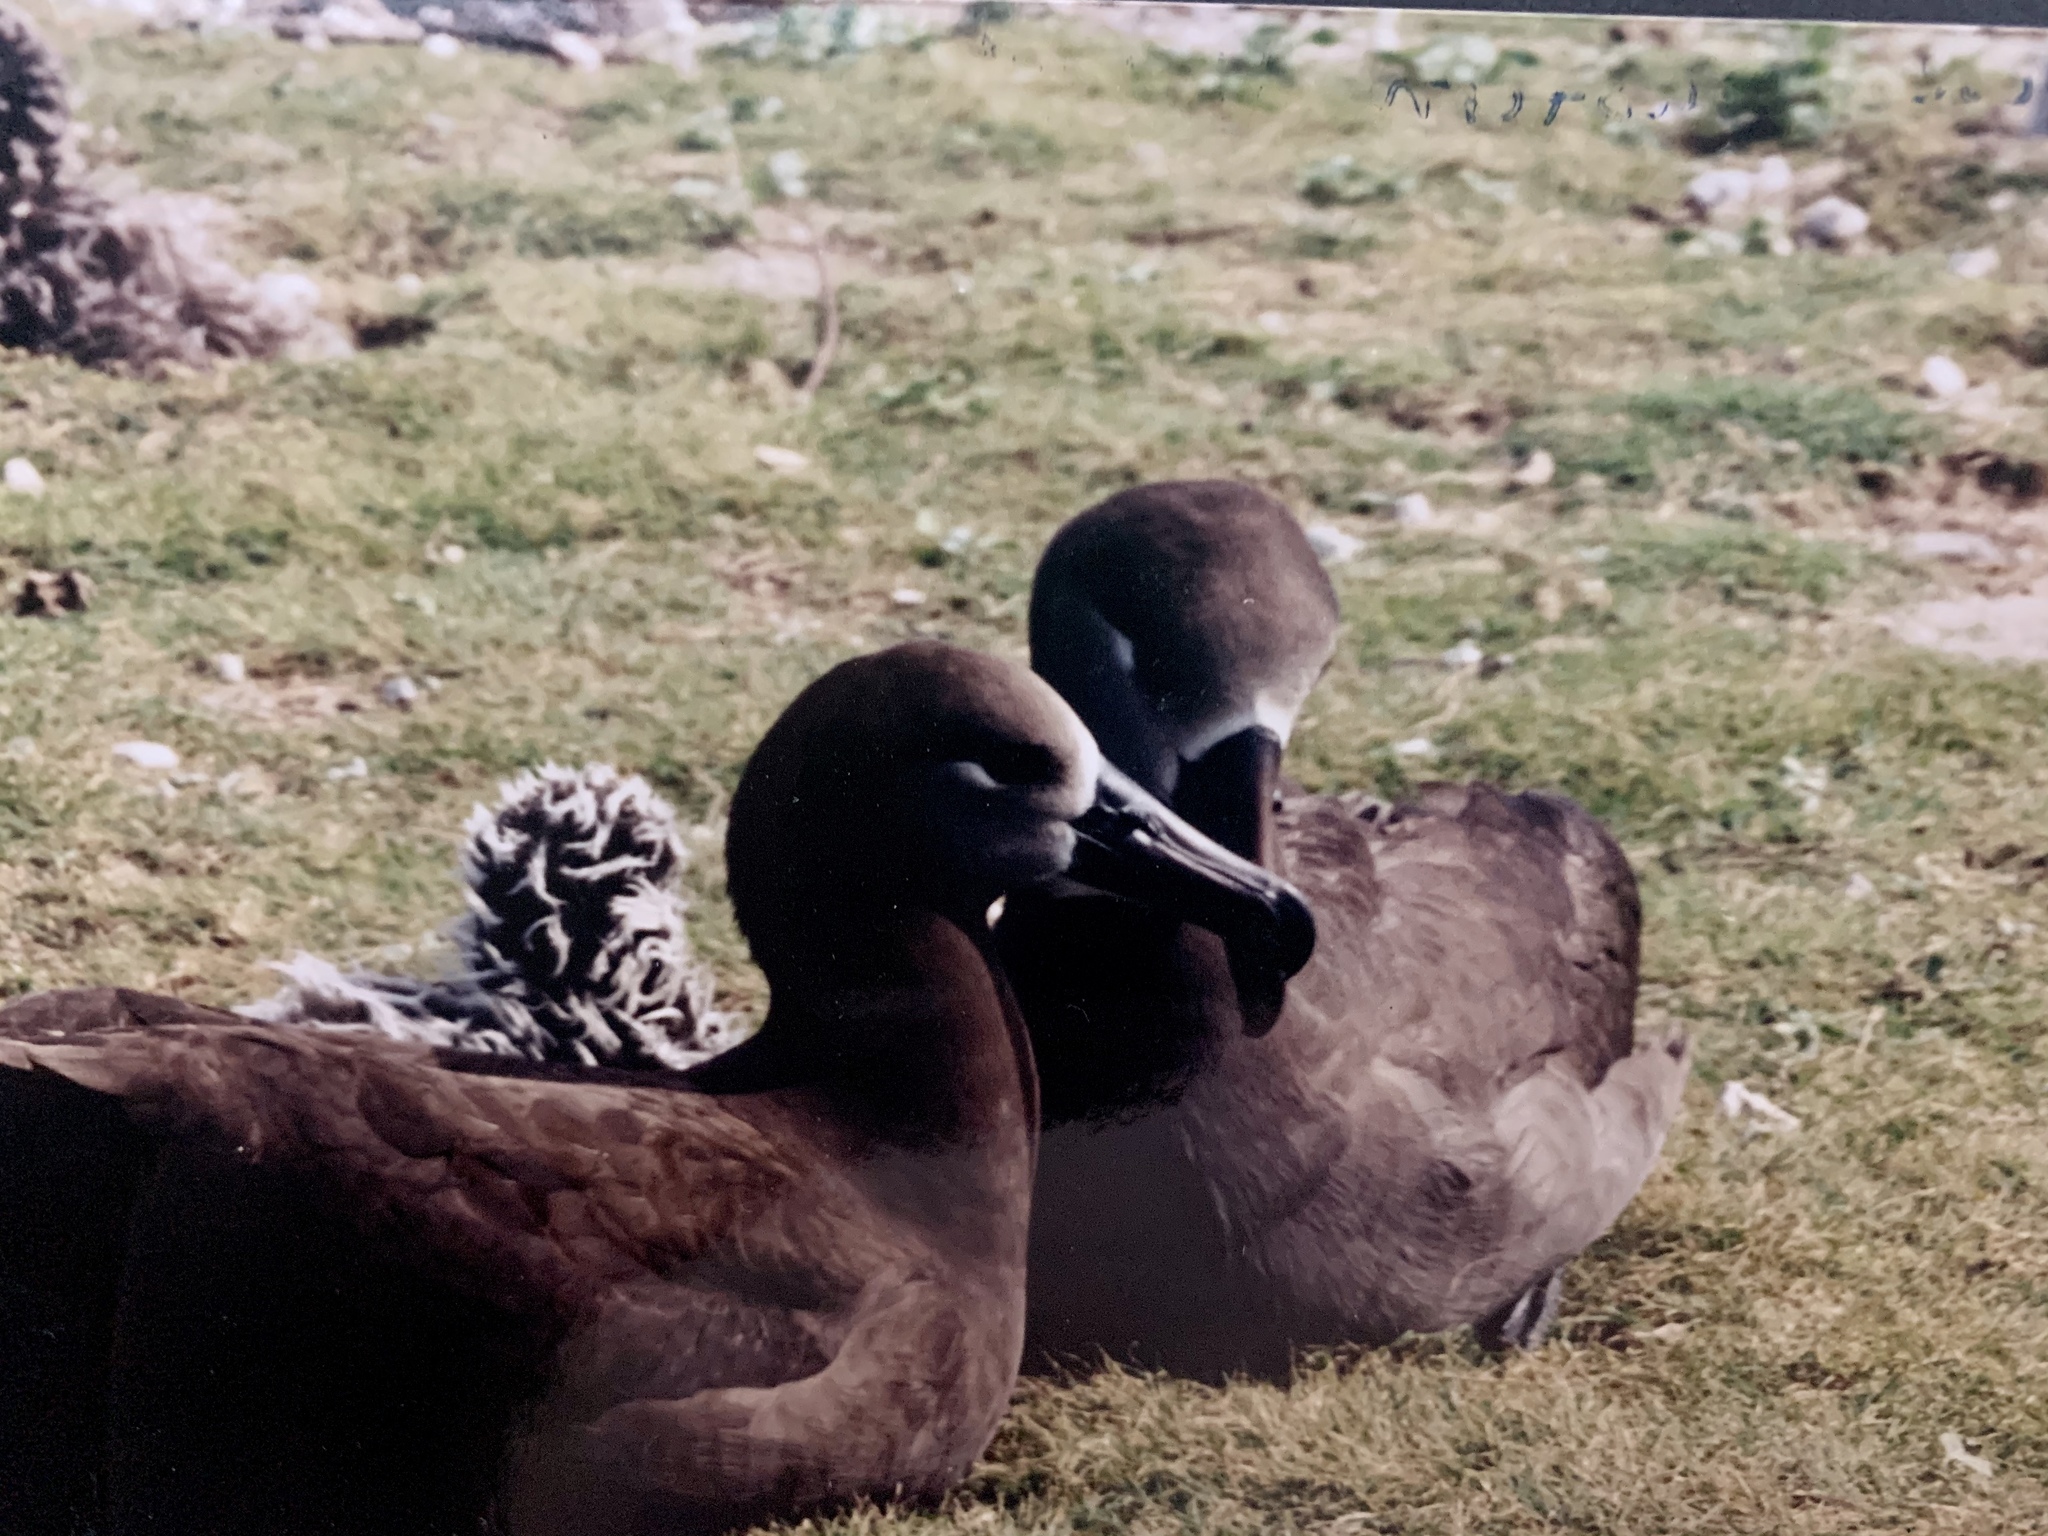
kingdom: Animalia
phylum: Chordata
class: Aves
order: Procellariiformes
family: Diomedeidae
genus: Phoebastria
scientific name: Phoebastria nigripes
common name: Black-footed albatross
